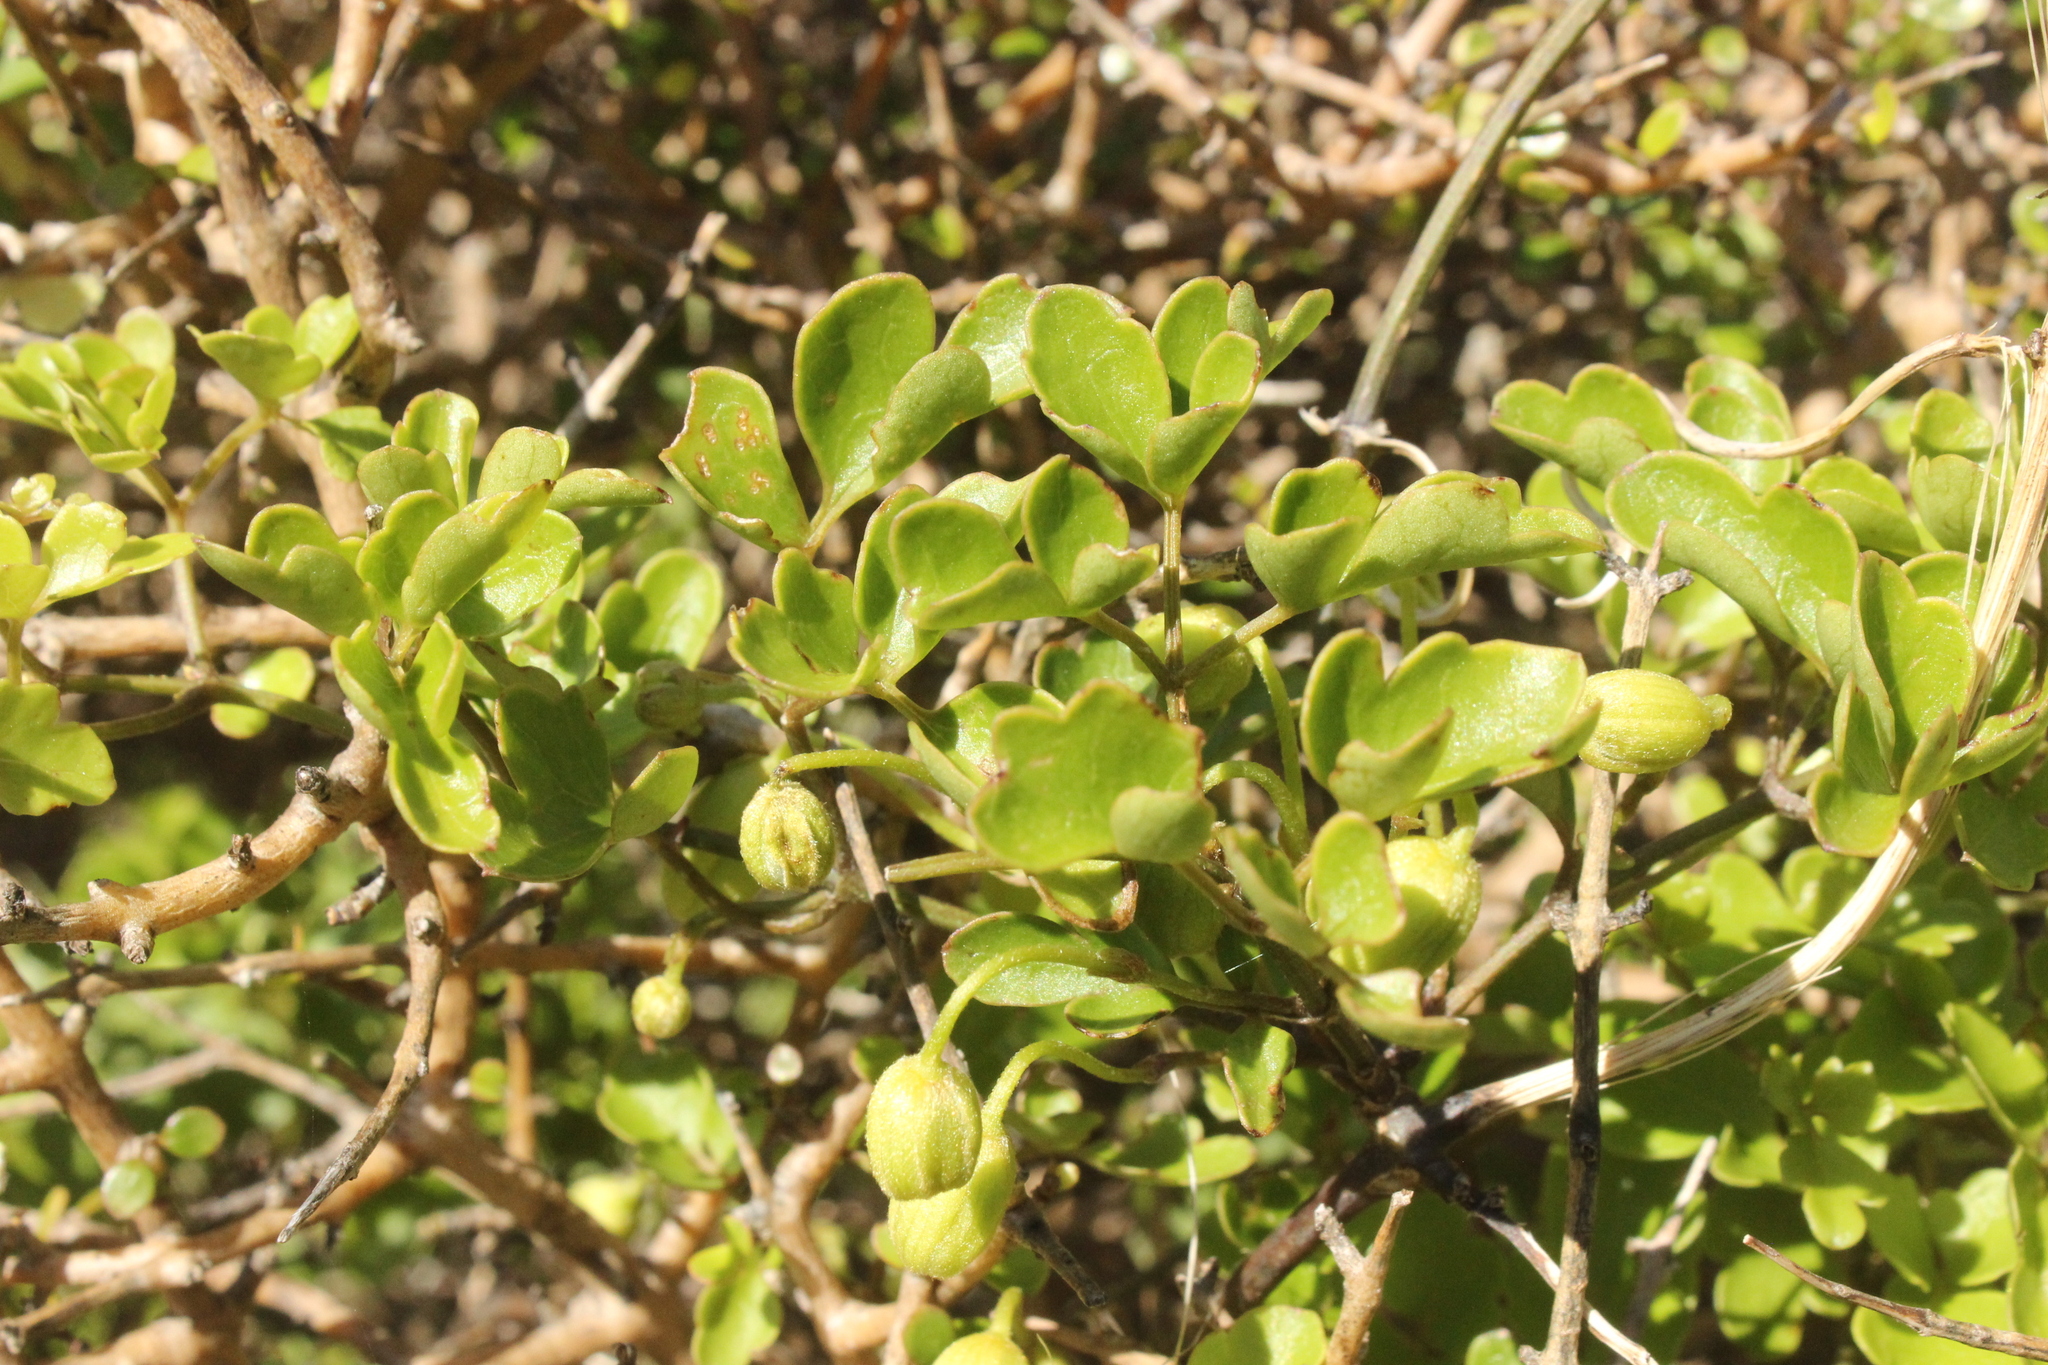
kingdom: Plantae
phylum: Tracheophyta
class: Magnoliopsida
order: Ranunculales
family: Ranunculaceae
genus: Clematis
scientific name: Clematis forsteri
